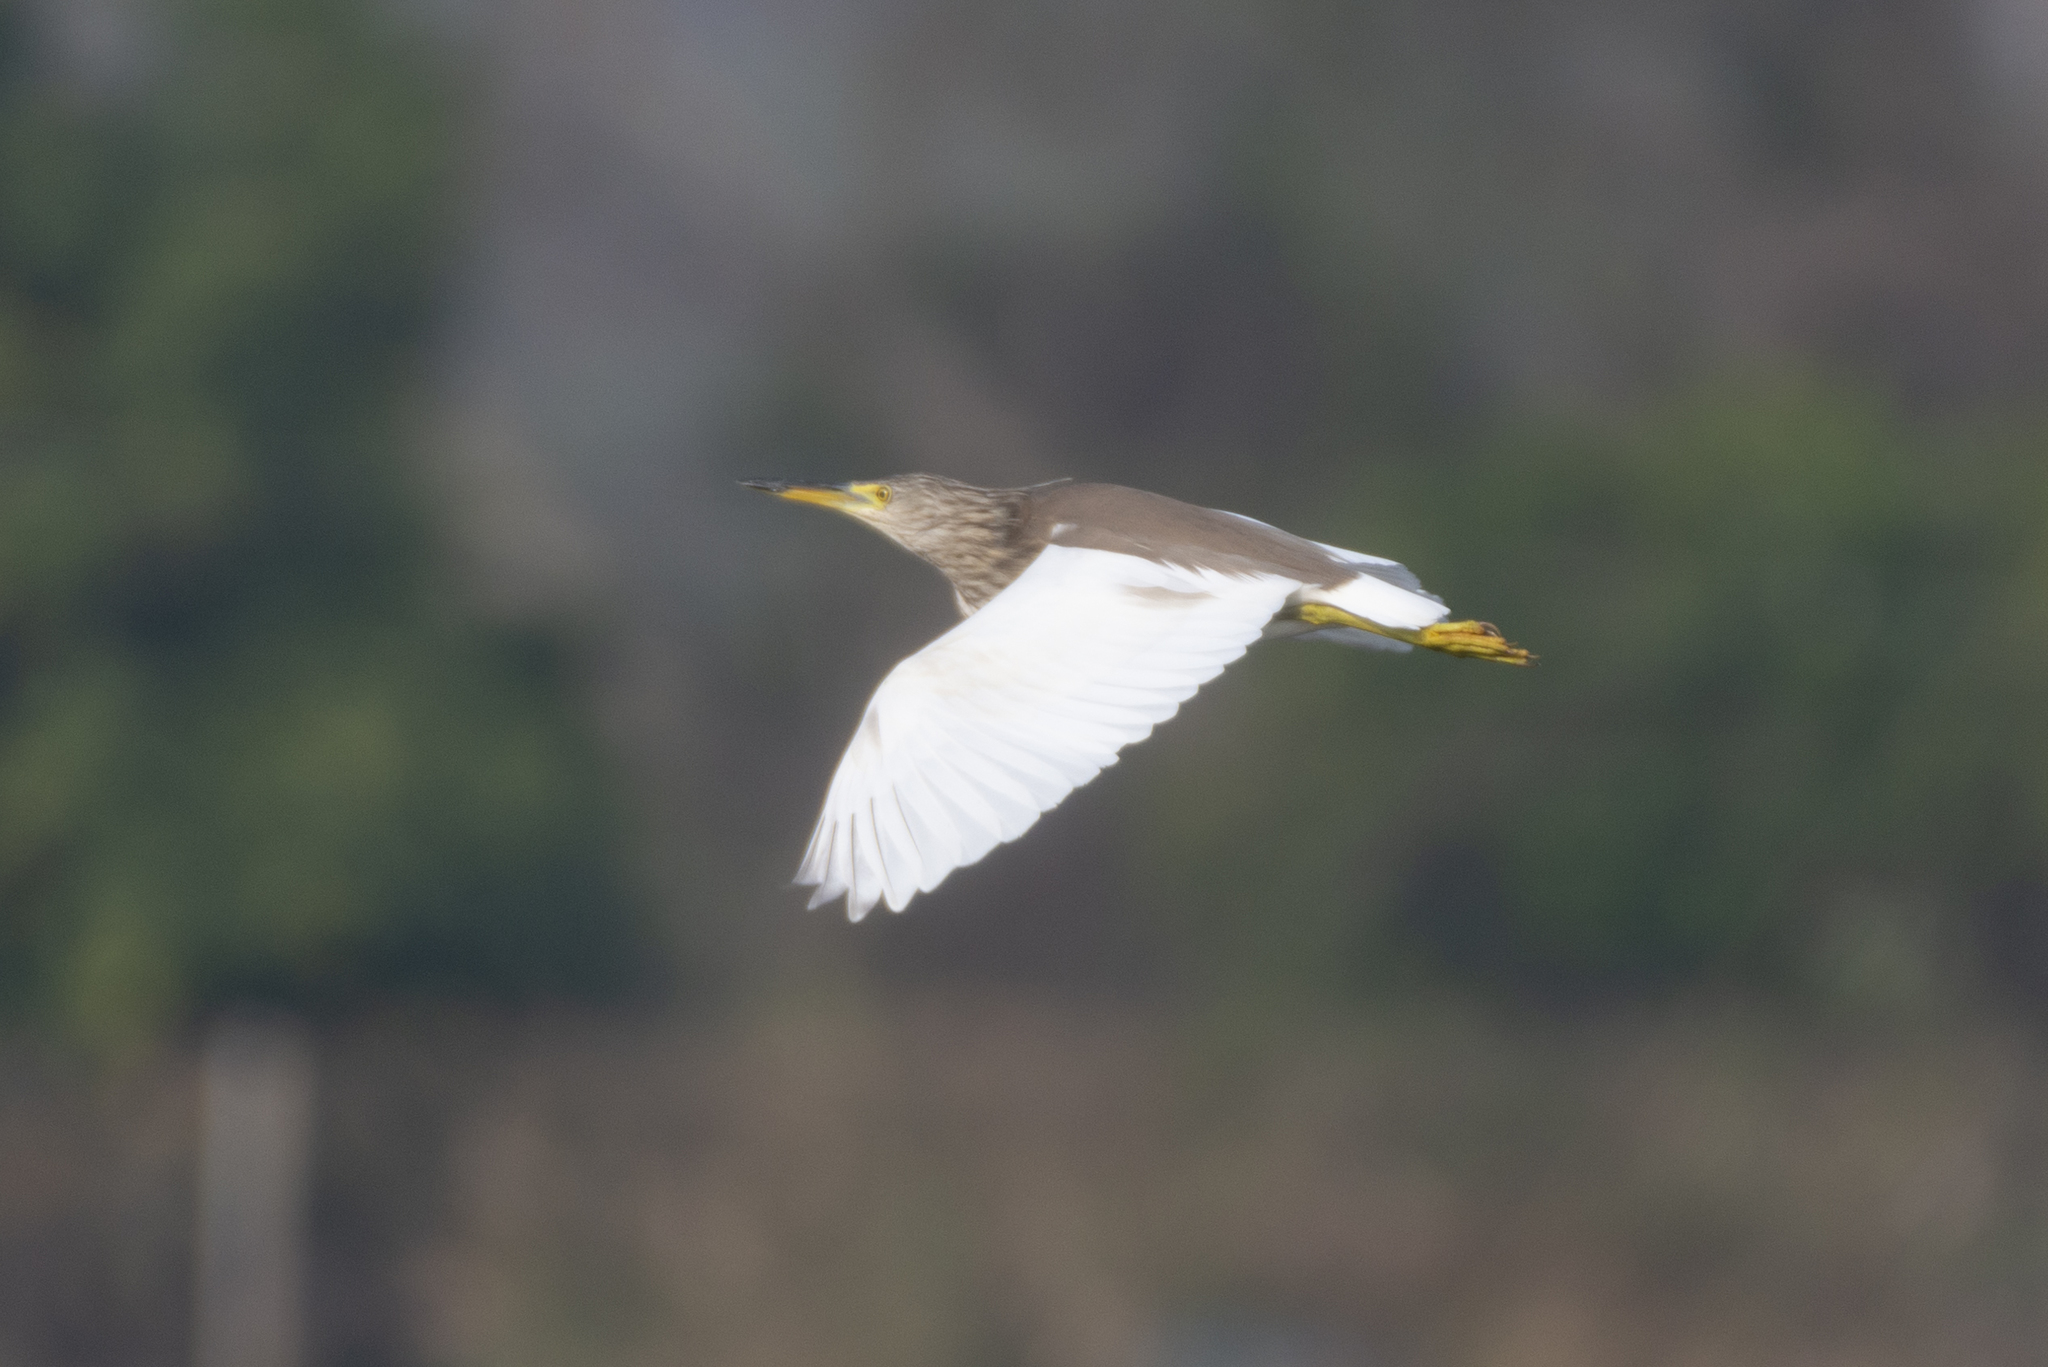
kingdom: Animalia
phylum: Chordata
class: Aves
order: Pelecaniformes
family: Ardeidae
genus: Ardeola
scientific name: Ardeola bacchus
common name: Chinese pond heron
